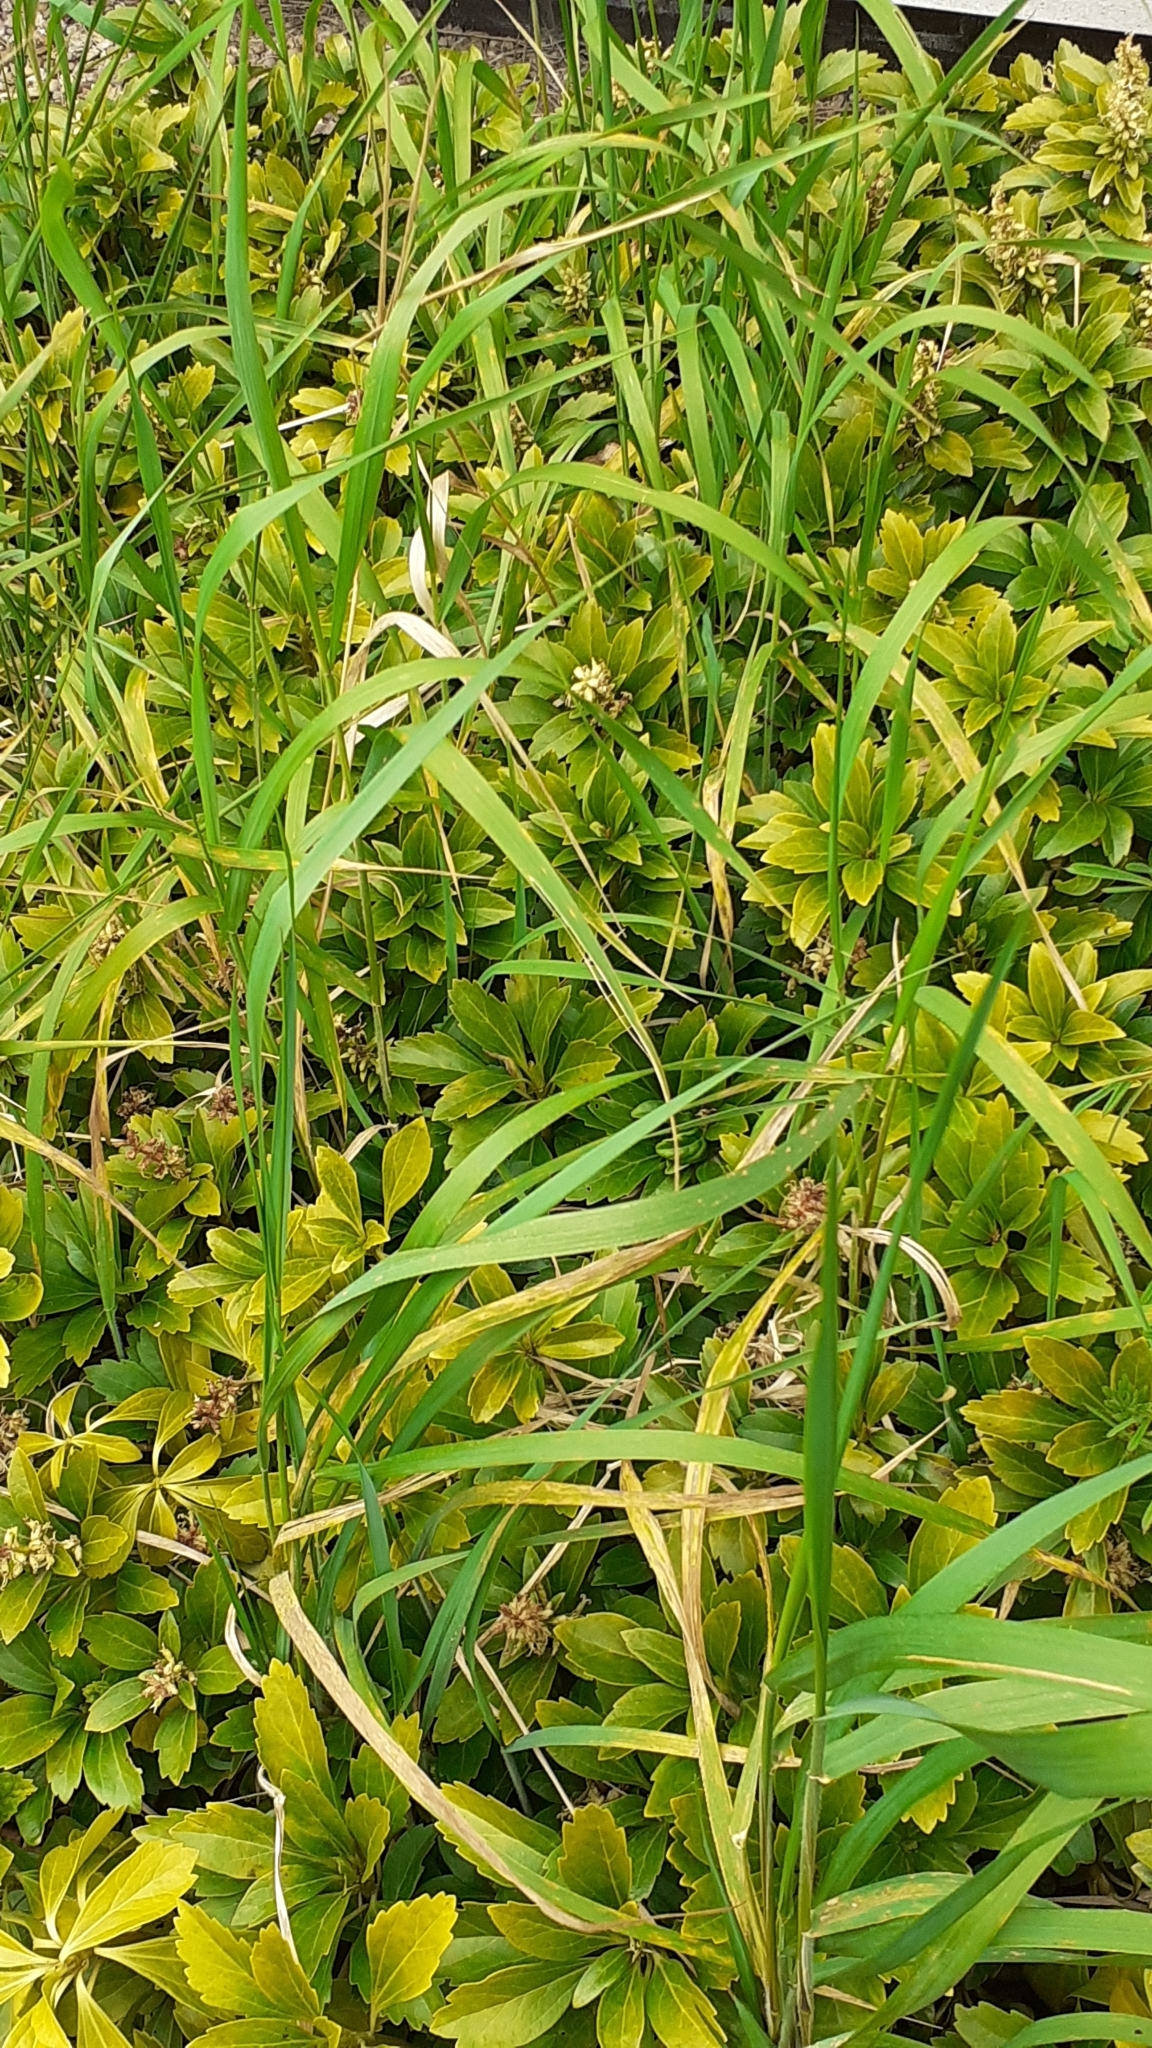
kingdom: Plantae
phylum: Tracheophyta
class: Liliopsida
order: Poales
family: Poaceae
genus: Elymus
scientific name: Elymus repens
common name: Quackgrass
